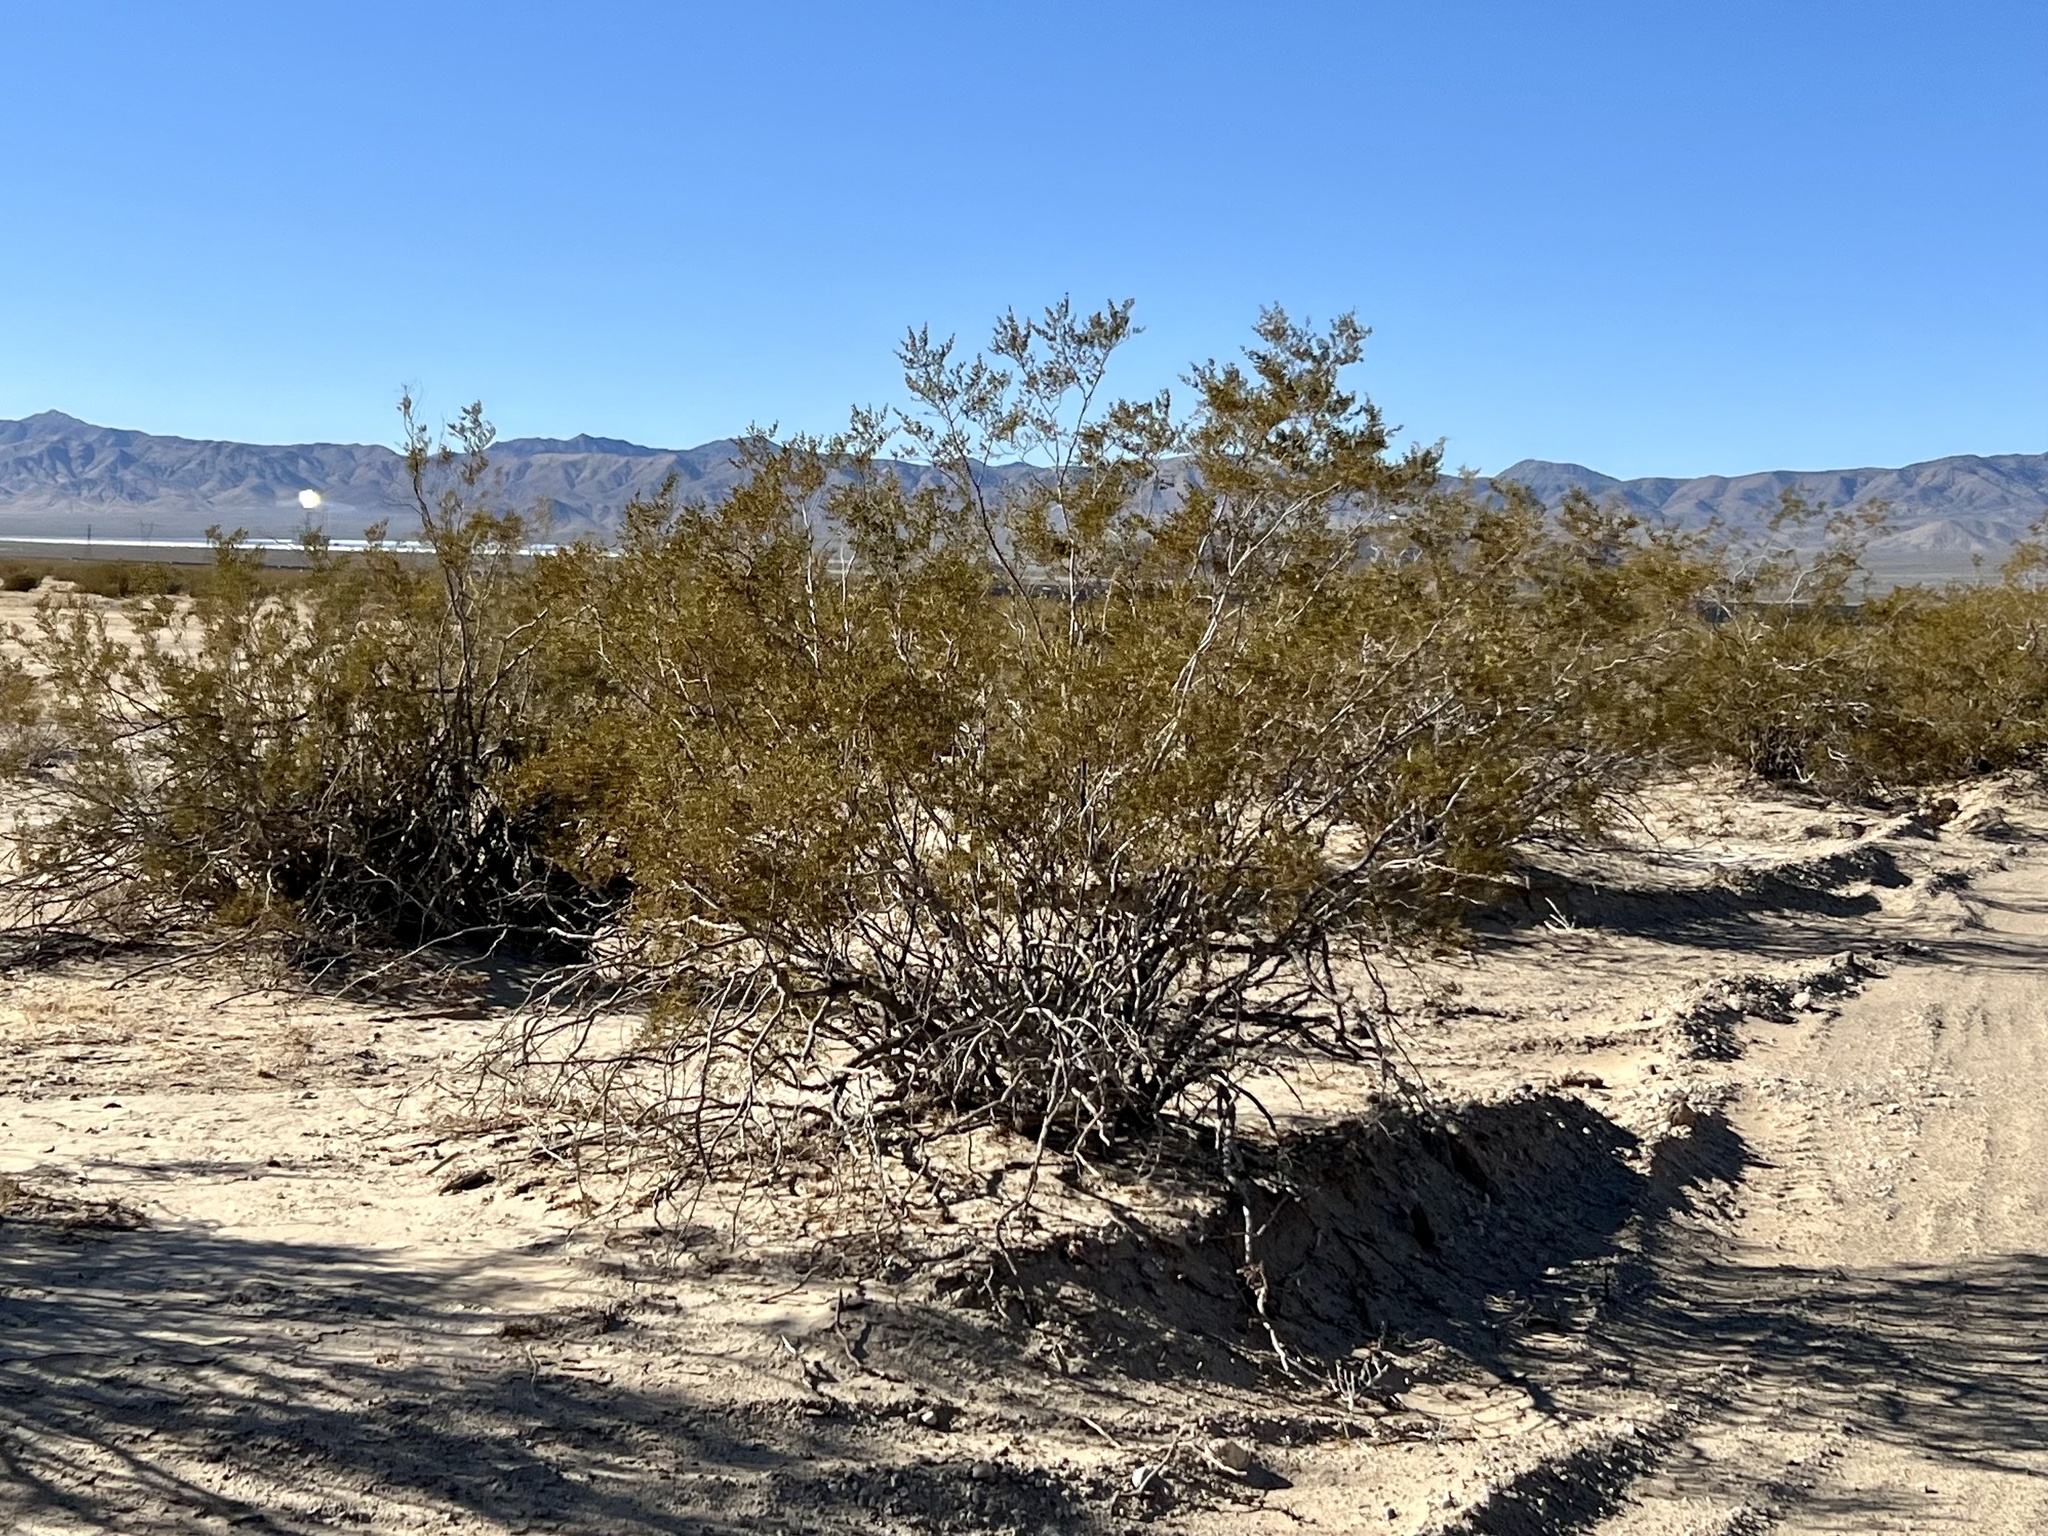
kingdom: Plantae
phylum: Tracheophyta
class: Magnoliopsida
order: Zygophyllales
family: Zygophyllaceae
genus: Larrea
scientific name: Larrea tridentata
